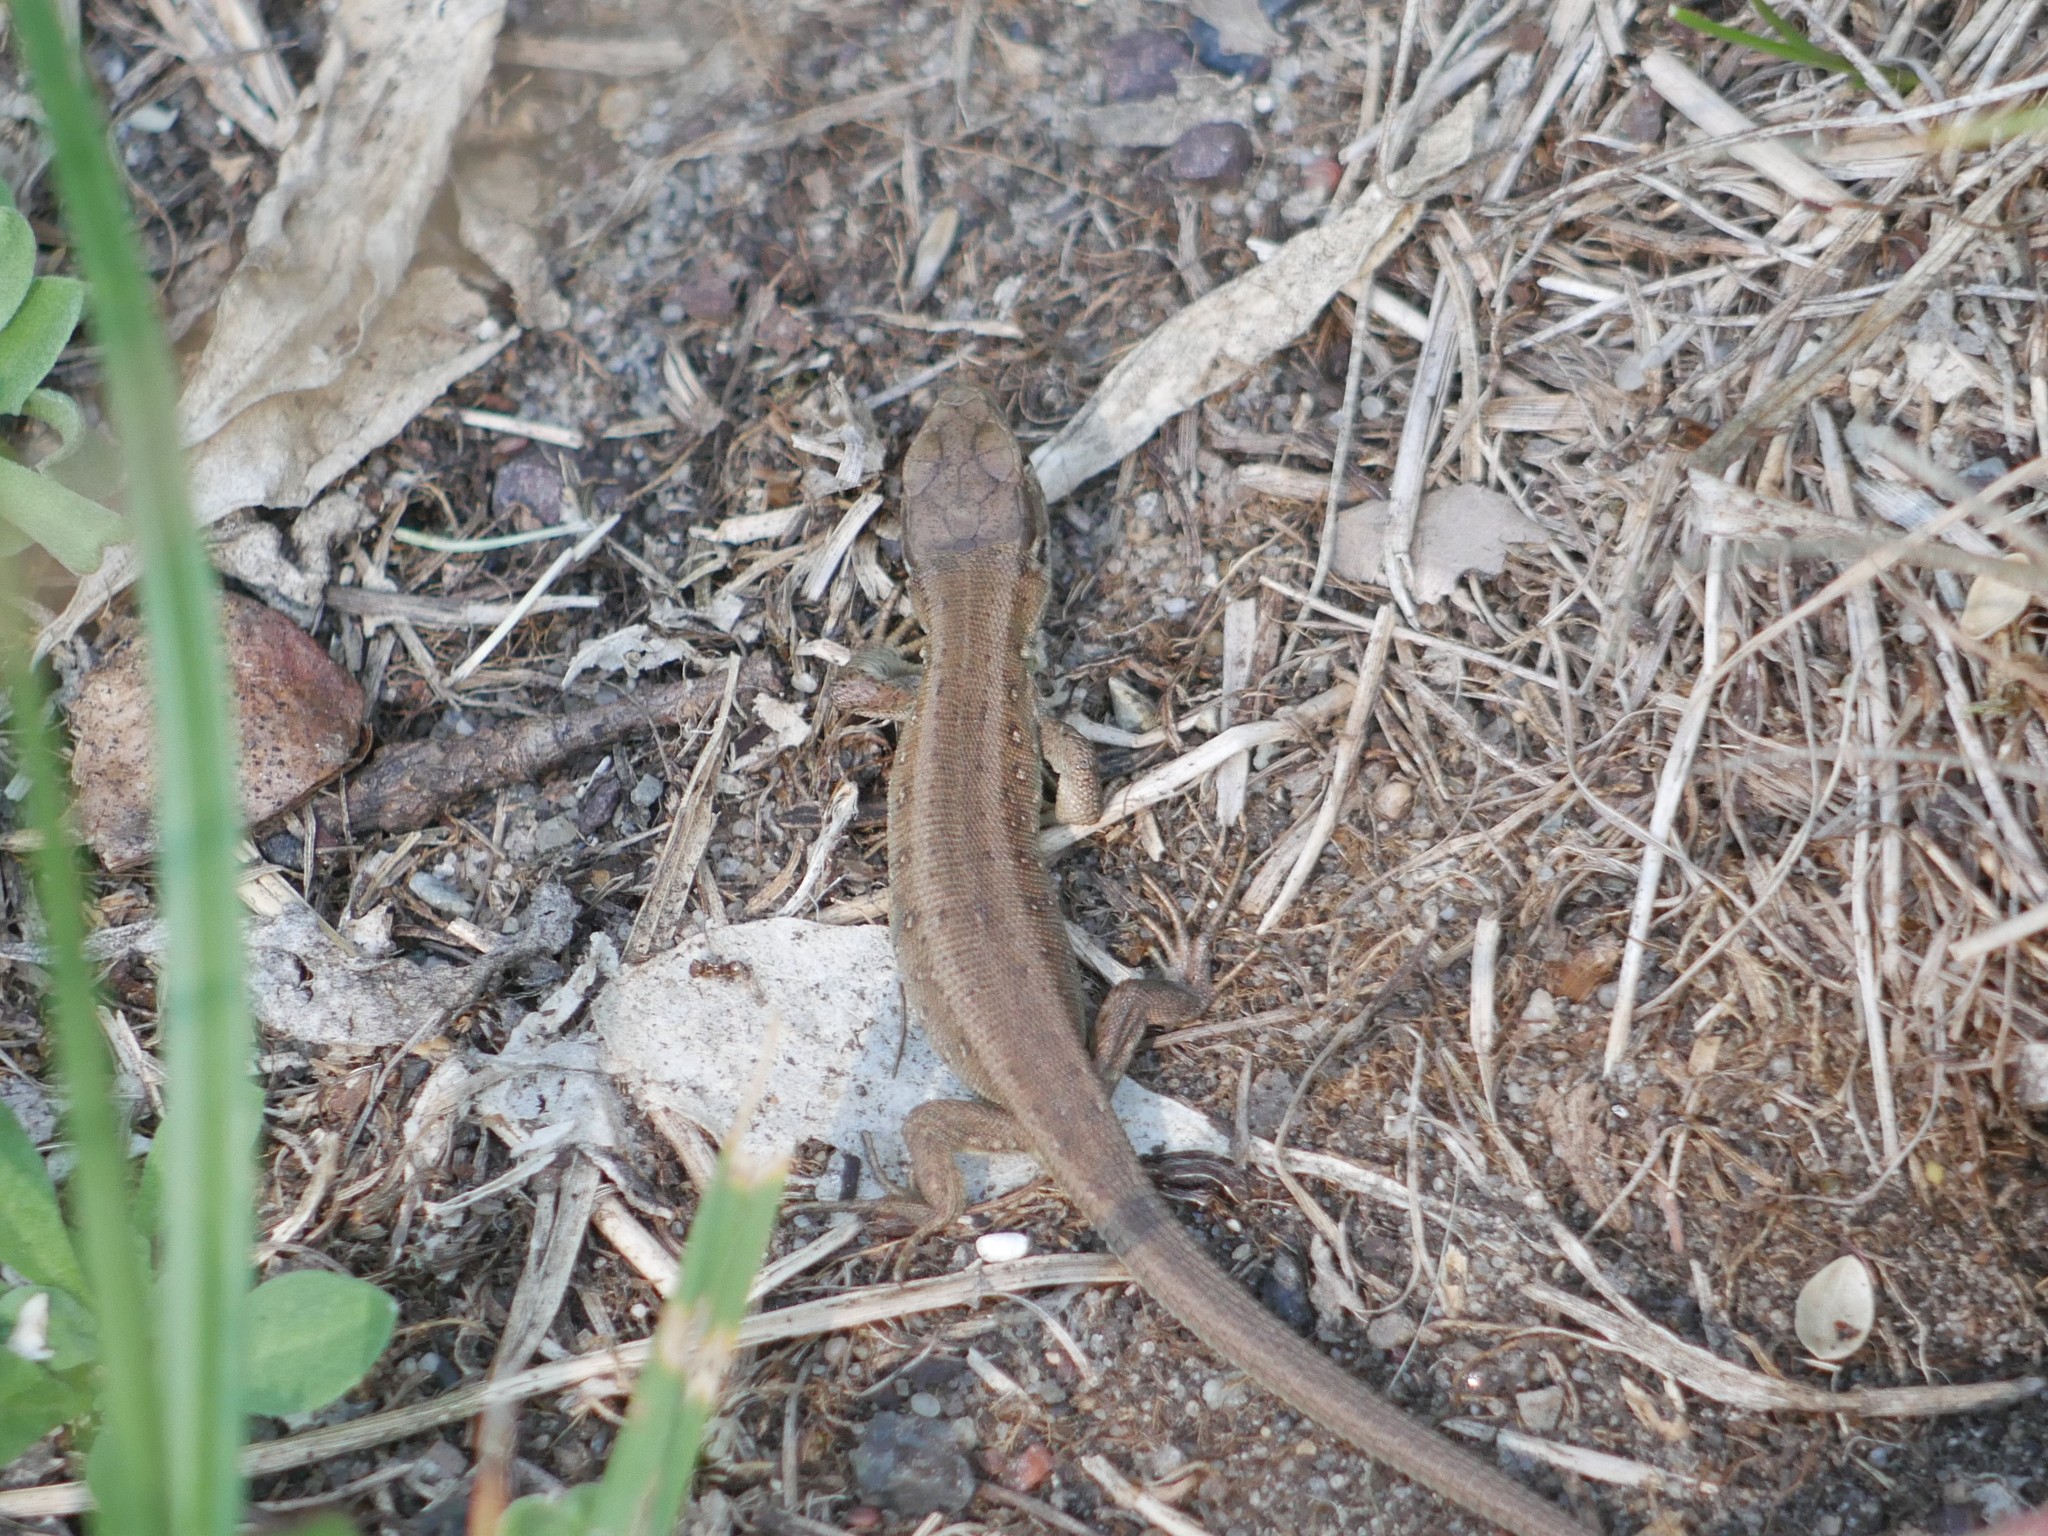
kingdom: Animalia
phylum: Chordata
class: Squamata
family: Lacertidae
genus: Lacerta
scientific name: Lacerta agilis
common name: Sand lizard
